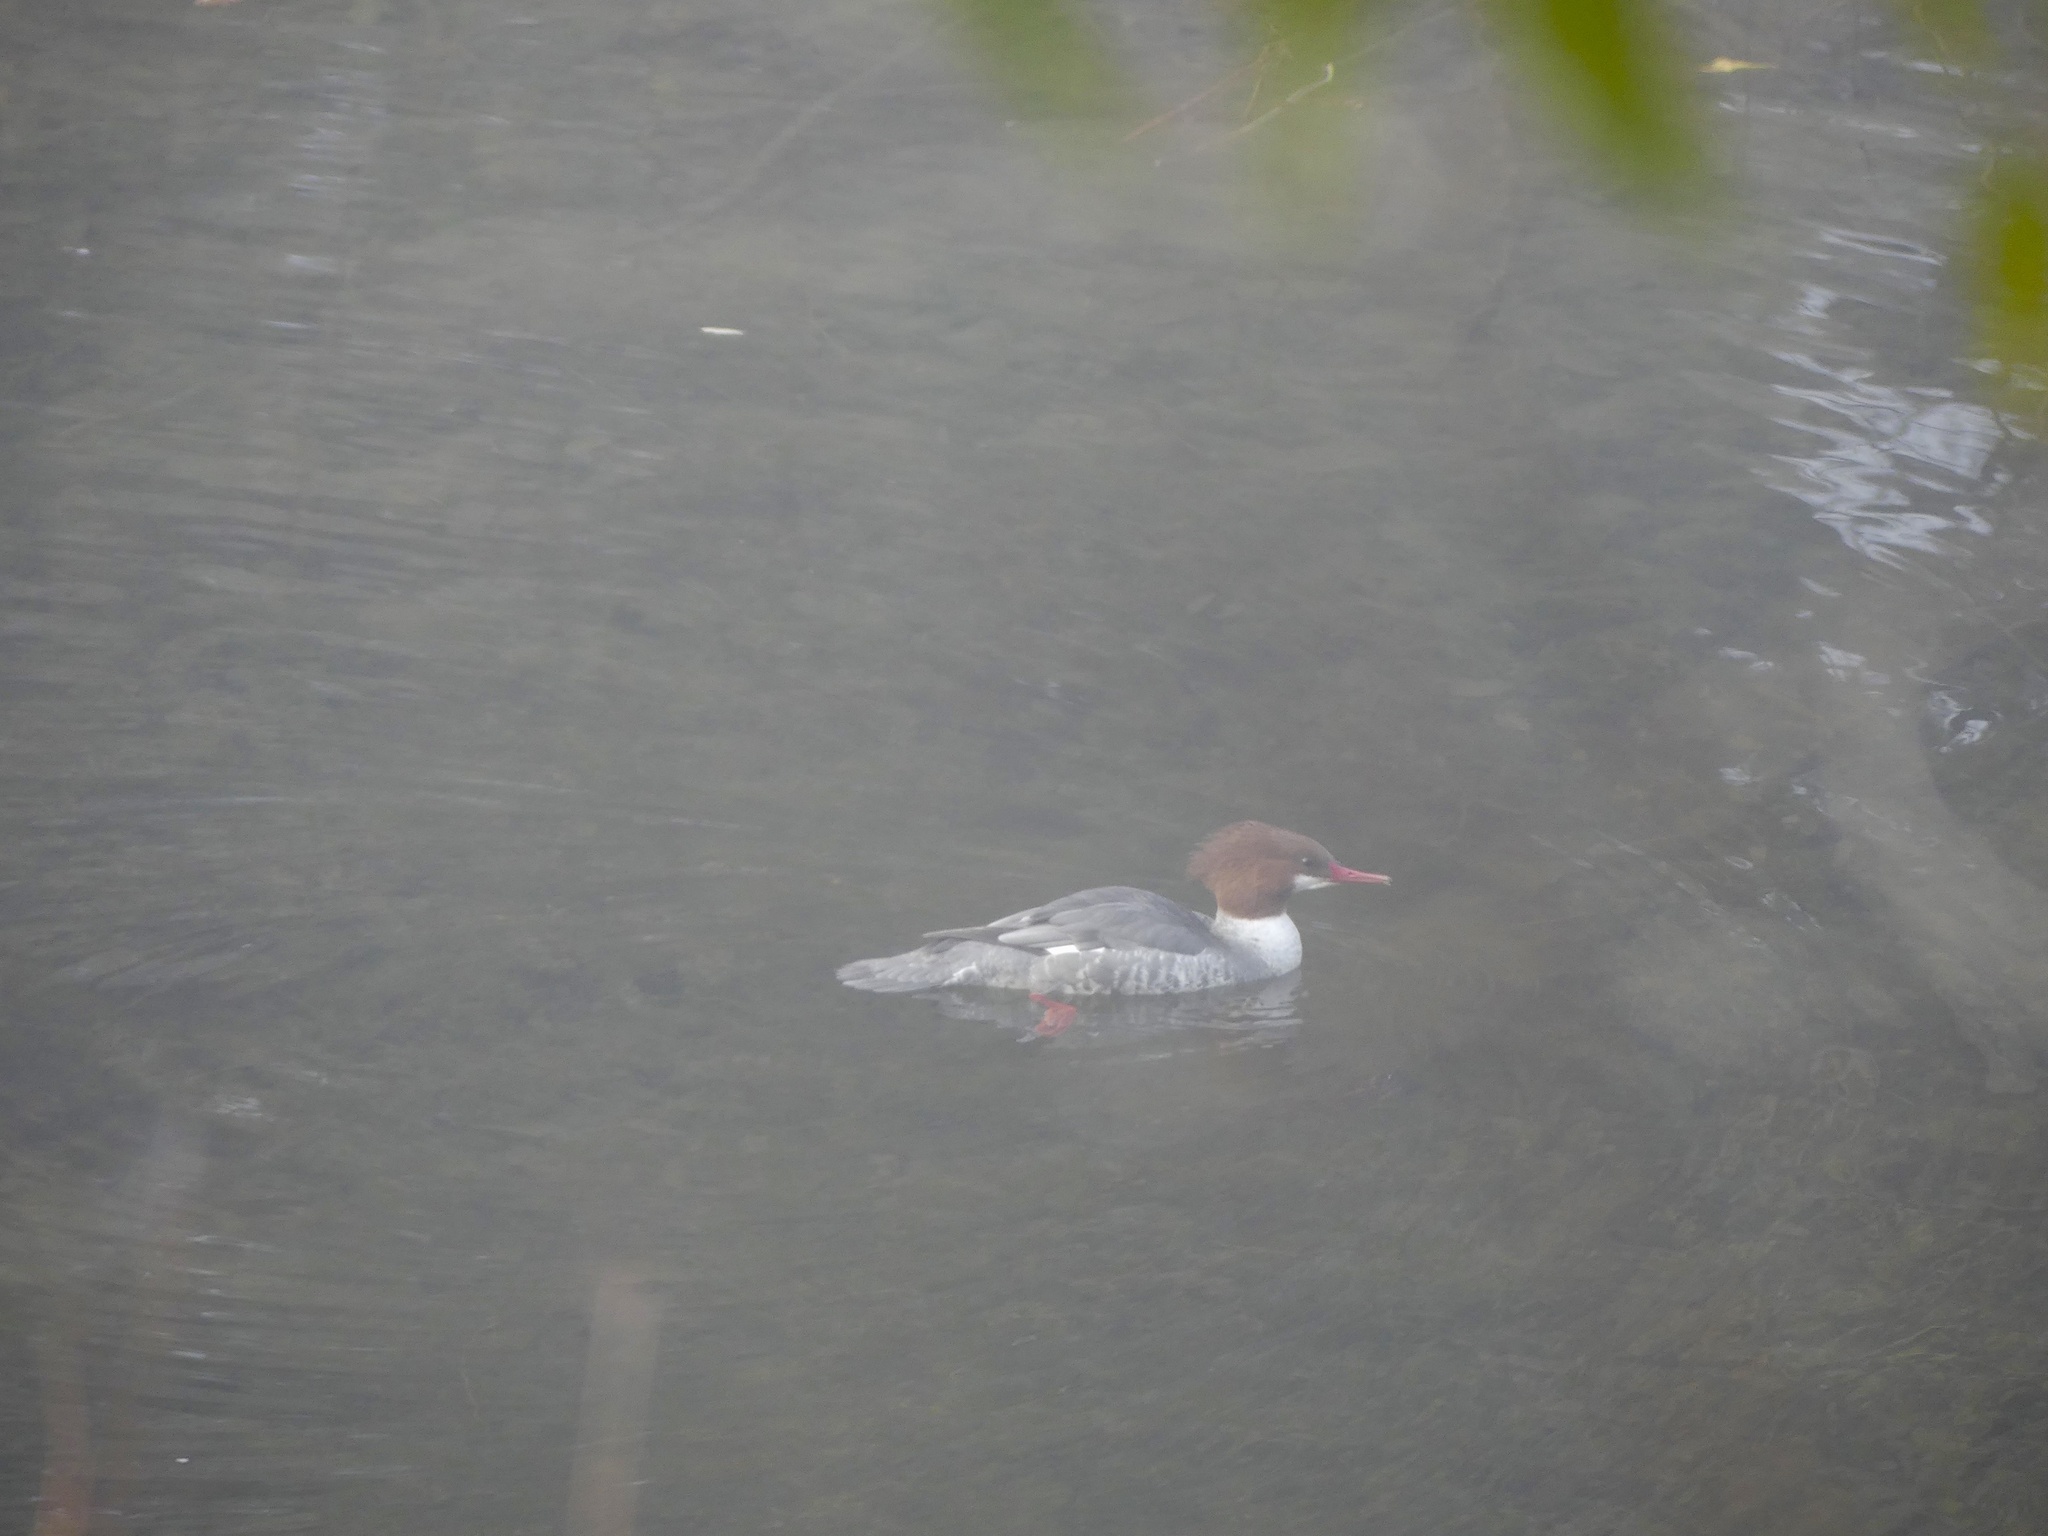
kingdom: Animalia
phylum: Chordata
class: Aves
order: Anseriformes
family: Anatidae
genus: Mergus
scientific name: Mergus merganser
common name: Common merganser
